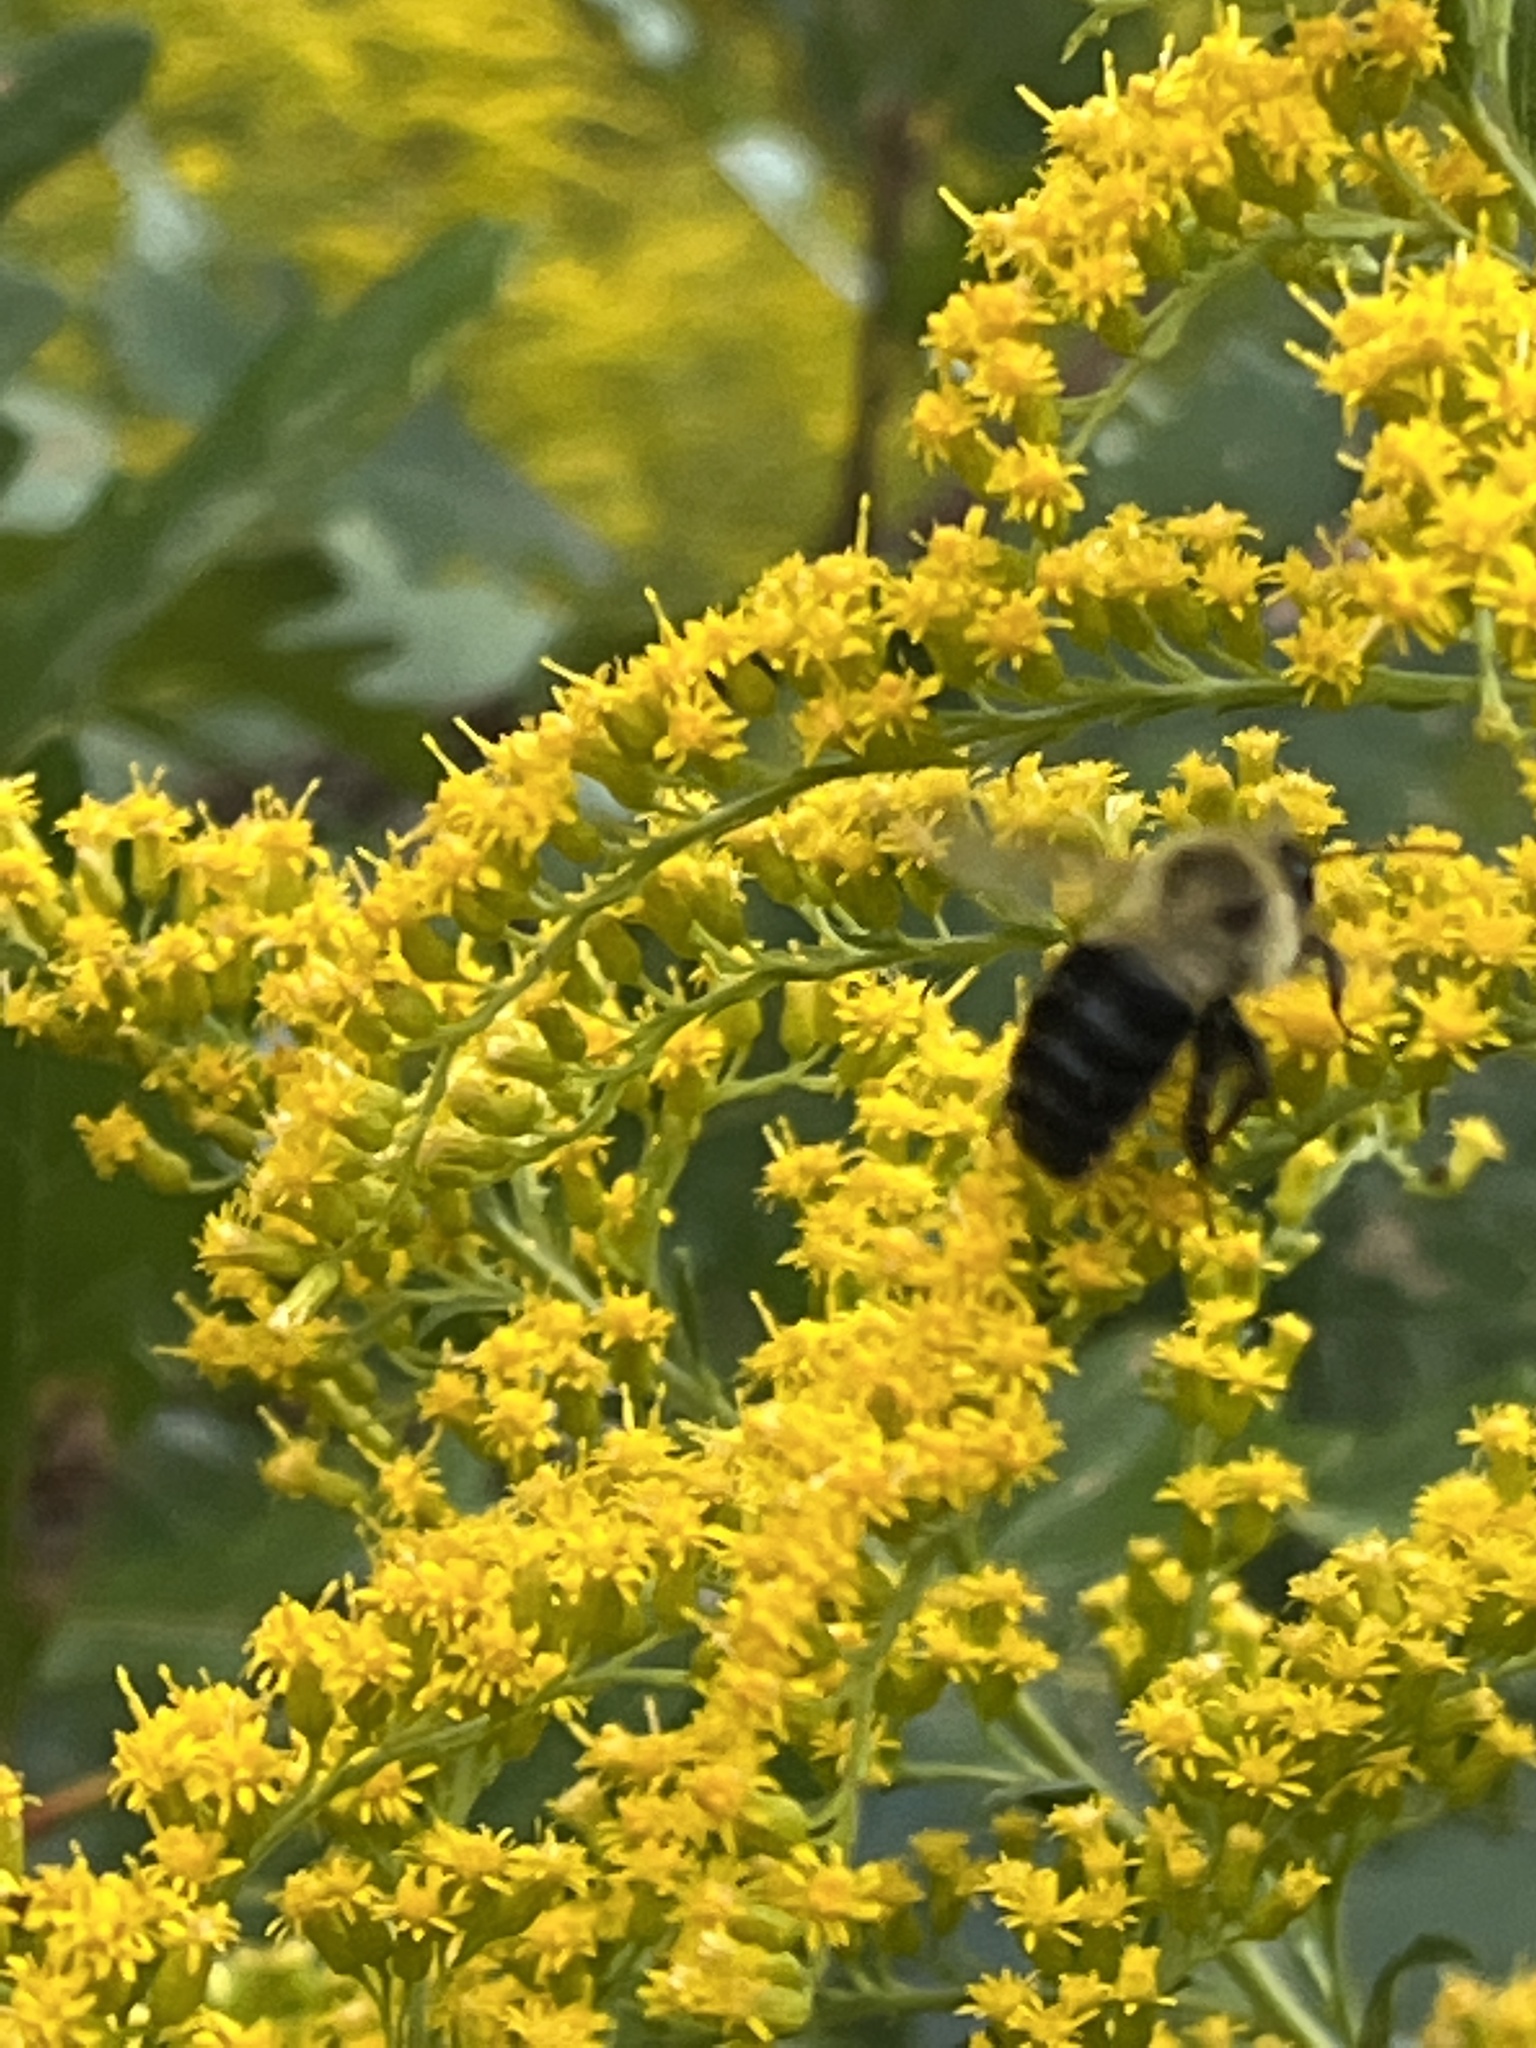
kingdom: Animalia
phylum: Arthropoda
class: Insecta
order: Hymenoptera
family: Apidae
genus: Bombus
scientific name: Bombus impatiens
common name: Common eastern bumble bee
